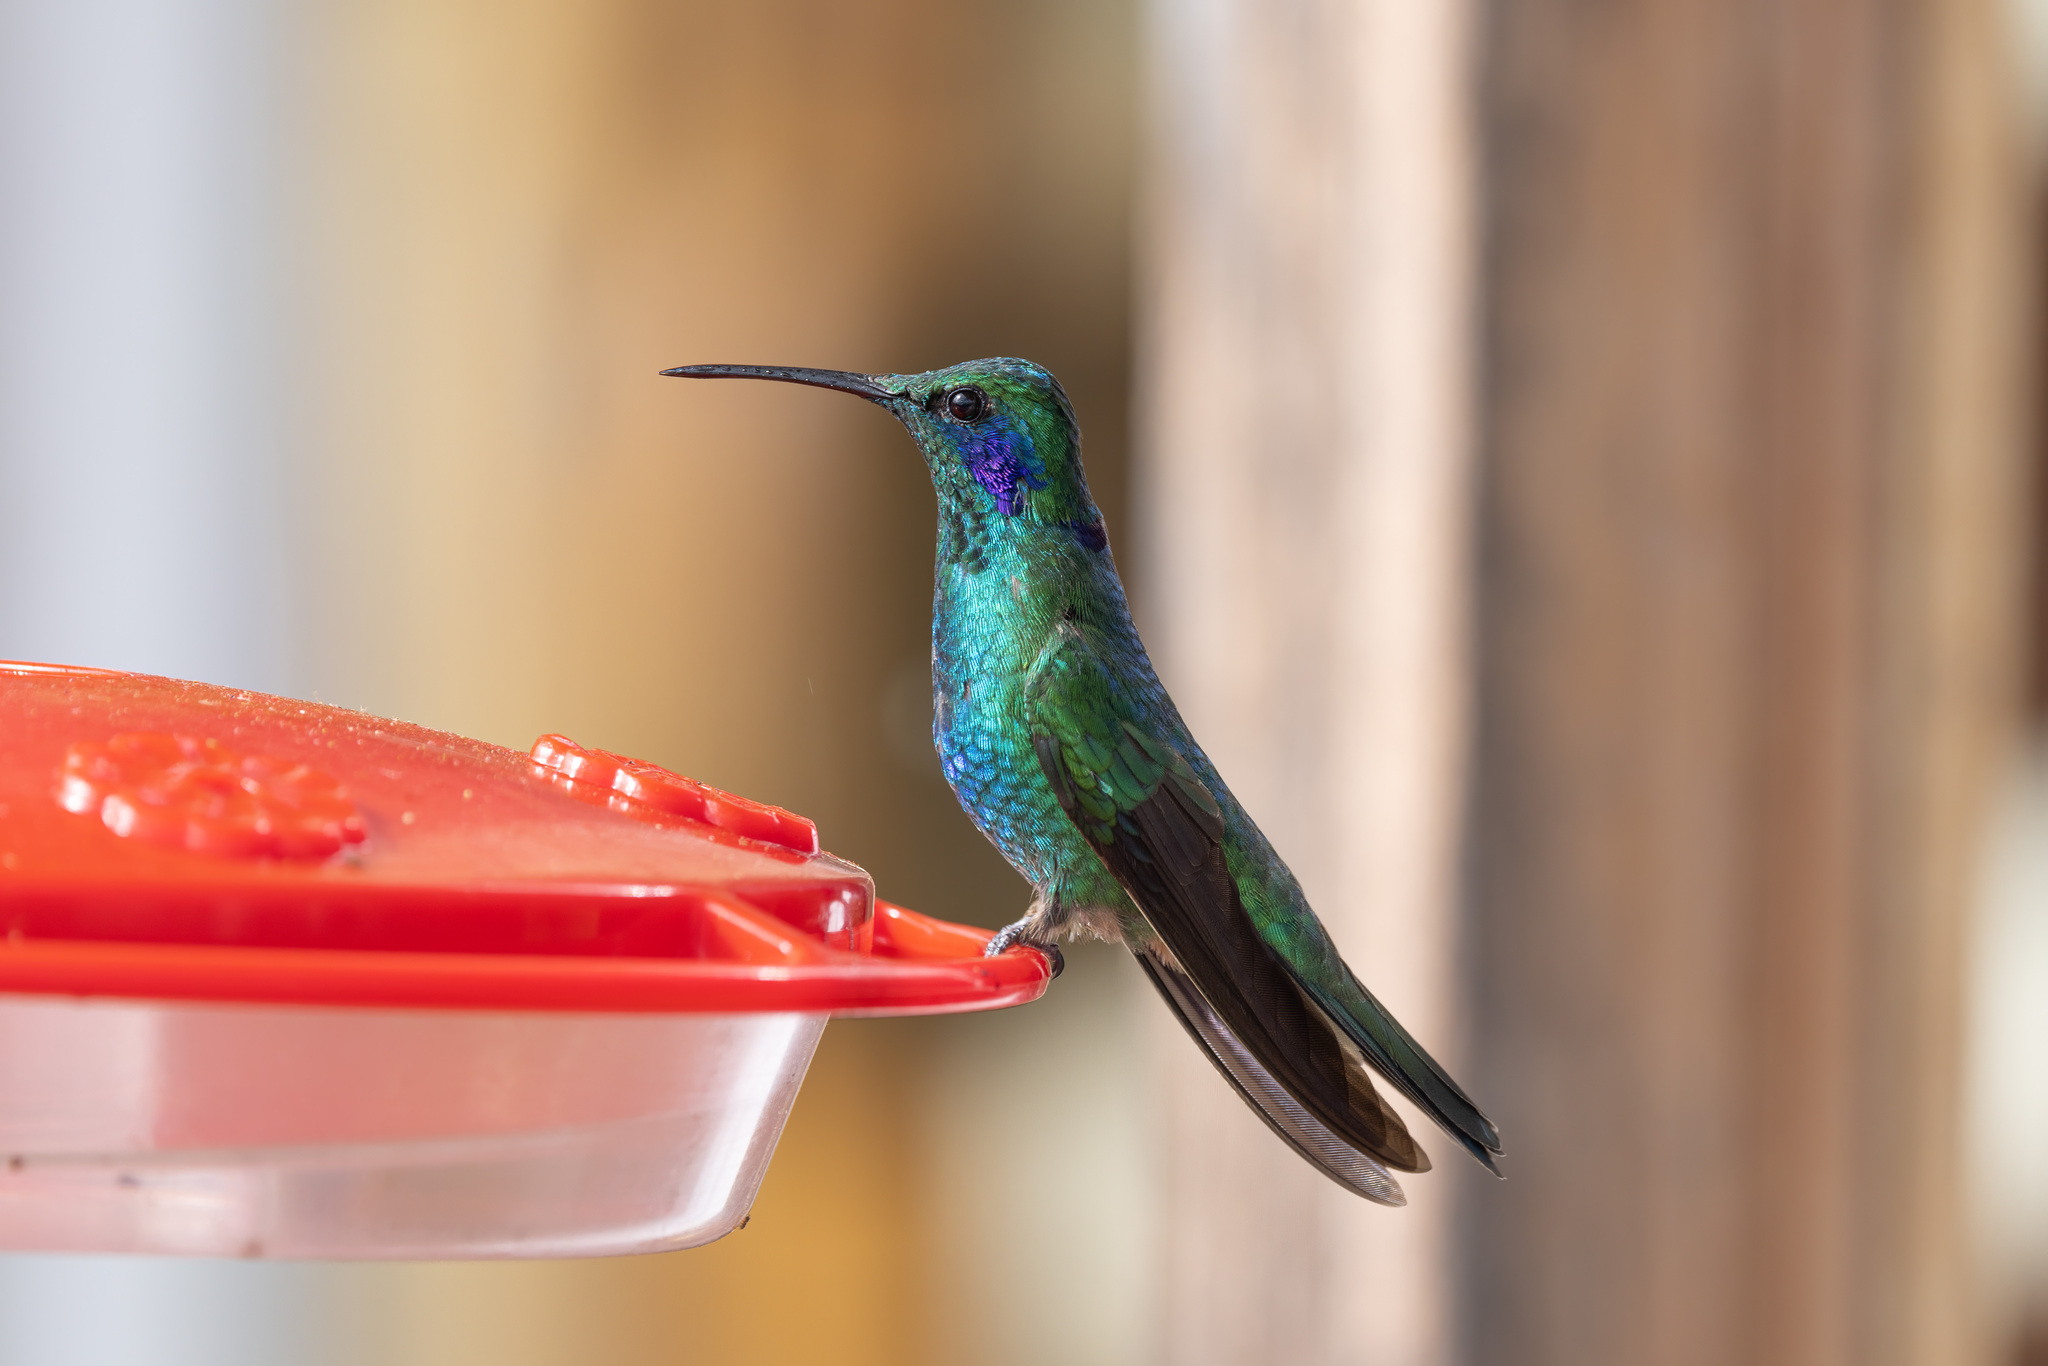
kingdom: Animalia
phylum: Chordata
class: Aves
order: Apodiformes
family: Trochilidae
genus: Colibri
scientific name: Colibri cyanotus
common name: Lesser violetear
